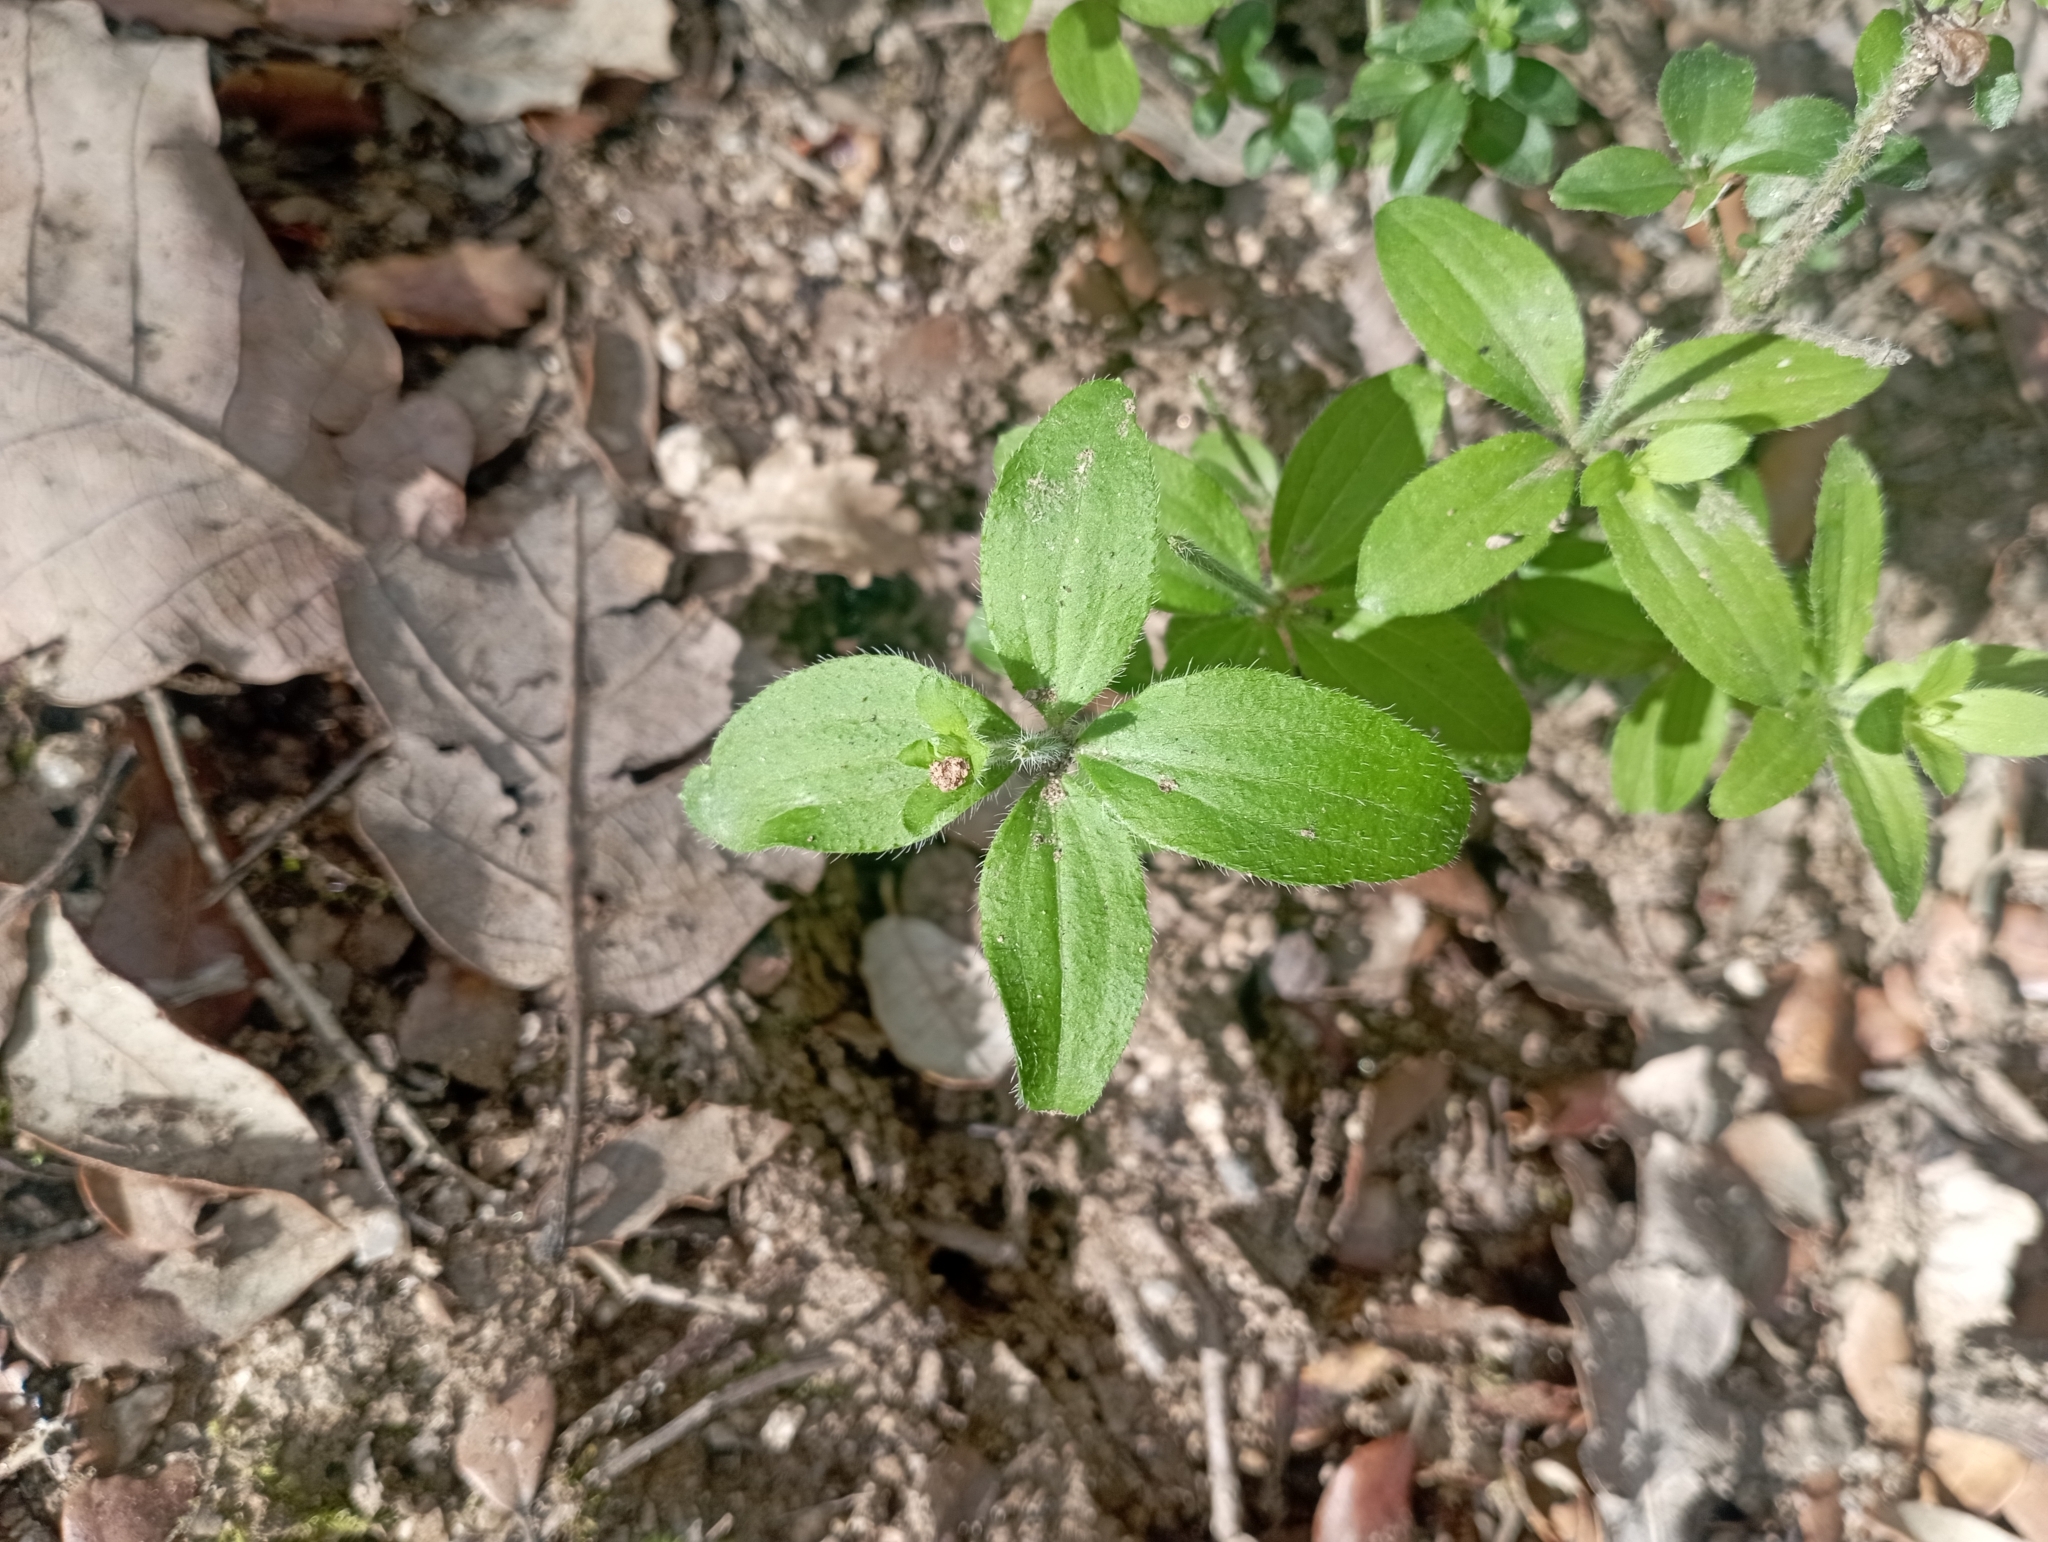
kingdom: Plantae
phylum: Tracheophyta
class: Magnoliopsida
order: Gentianales
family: Rubiaceae
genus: Galium
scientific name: Galium scabrum
